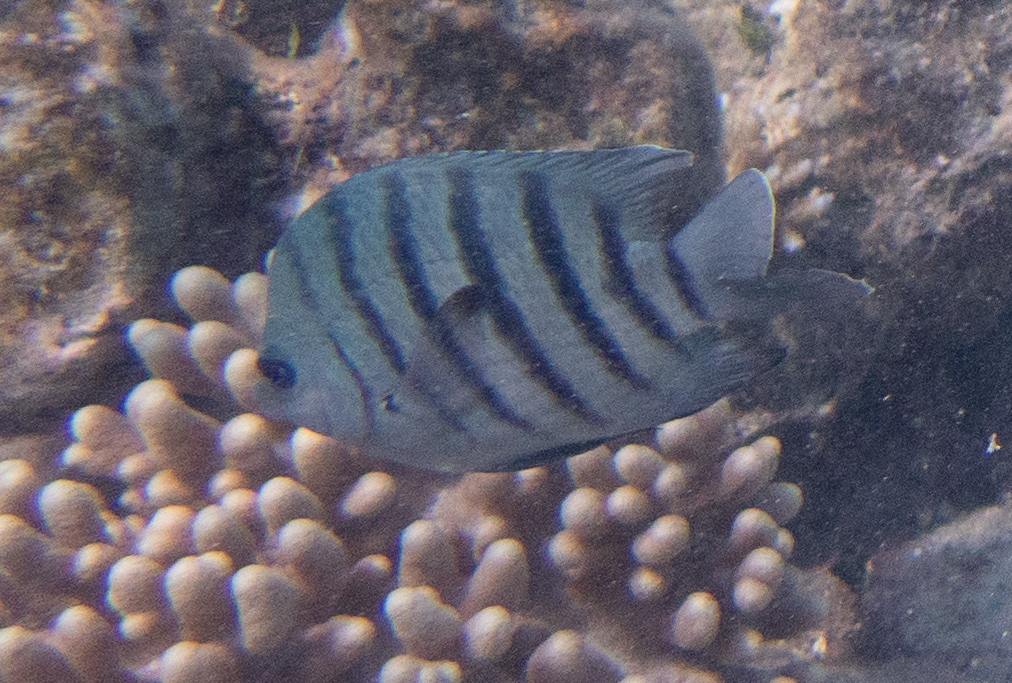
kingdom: Animalia
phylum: Chordata
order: Perciformes
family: Pomacentridae
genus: Abudefduf
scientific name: Abudefduf bengalensis
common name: Bengal sergeant
